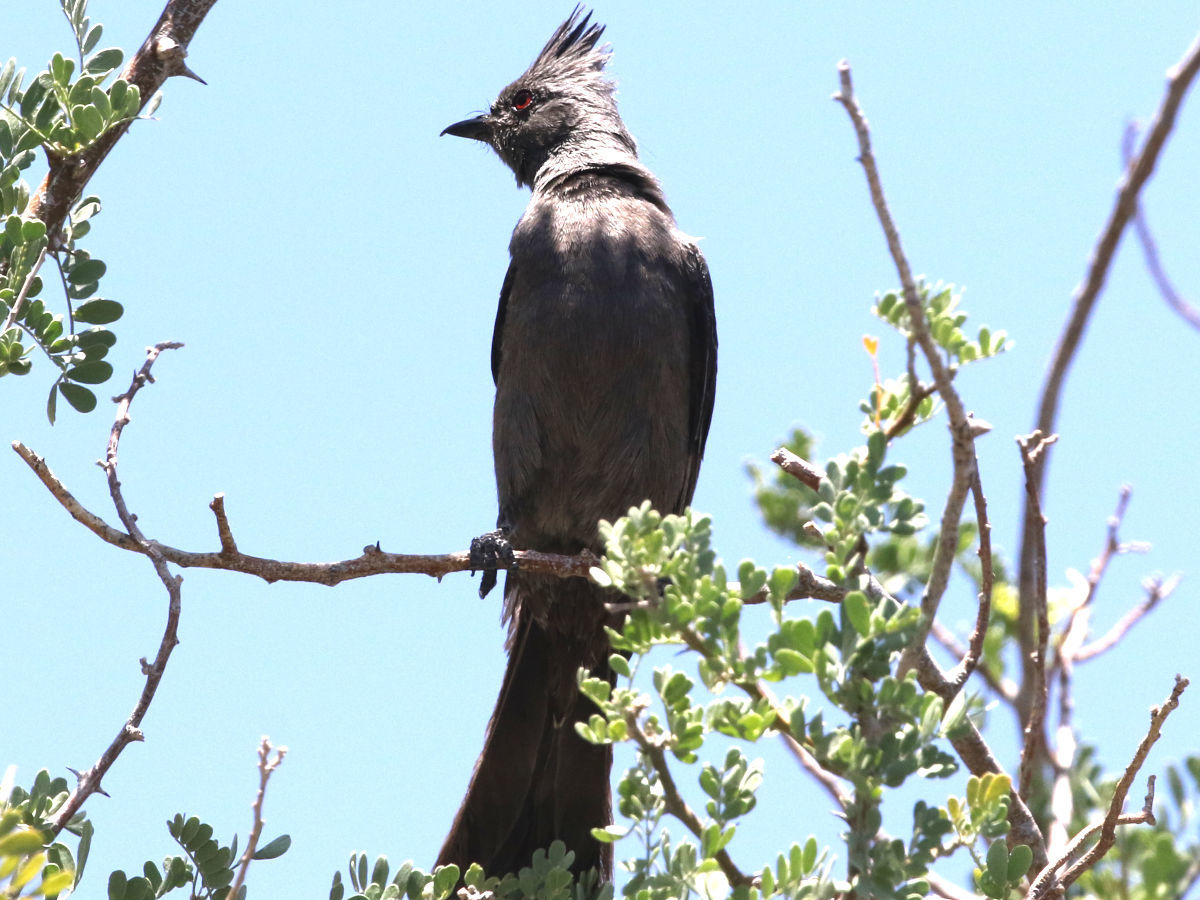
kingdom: Animalia
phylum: Chordata
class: Aves
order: Passeriformes
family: Ptilogonatidae
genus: Phainopepla
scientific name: Phainopepla nitens
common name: Phainopepla
